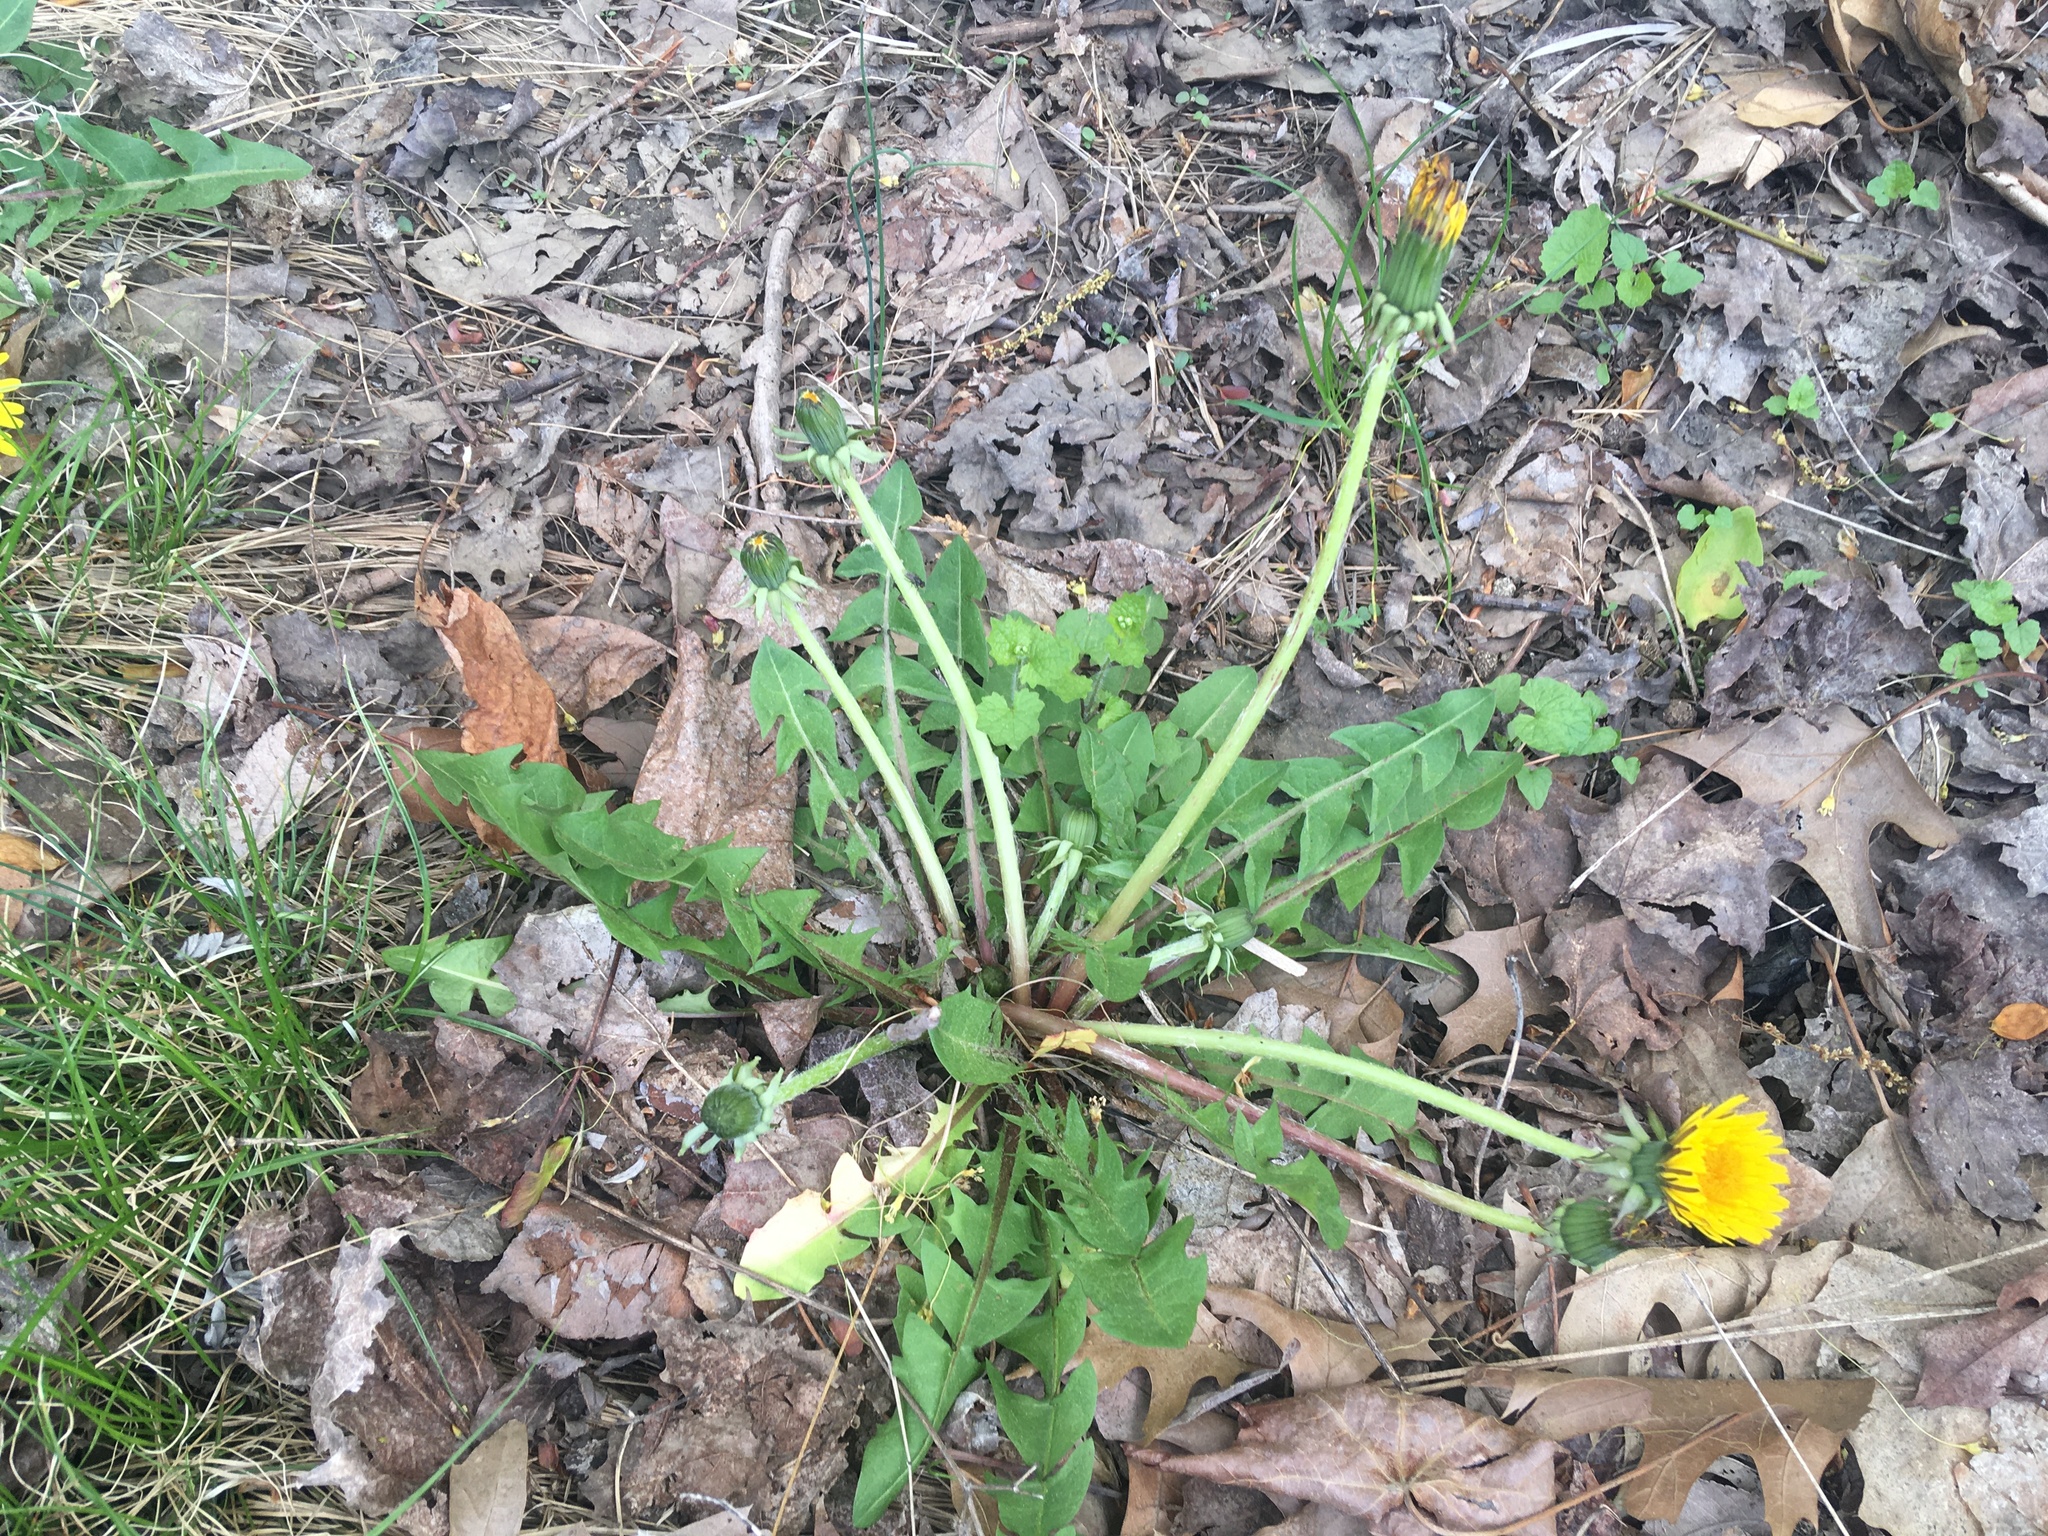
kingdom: Plantae
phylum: Tracheophyta
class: Magnoliopsida
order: Asterales
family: Asteraceae
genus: Taraxacum
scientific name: Taraxacum officinale
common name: Common dandelion
